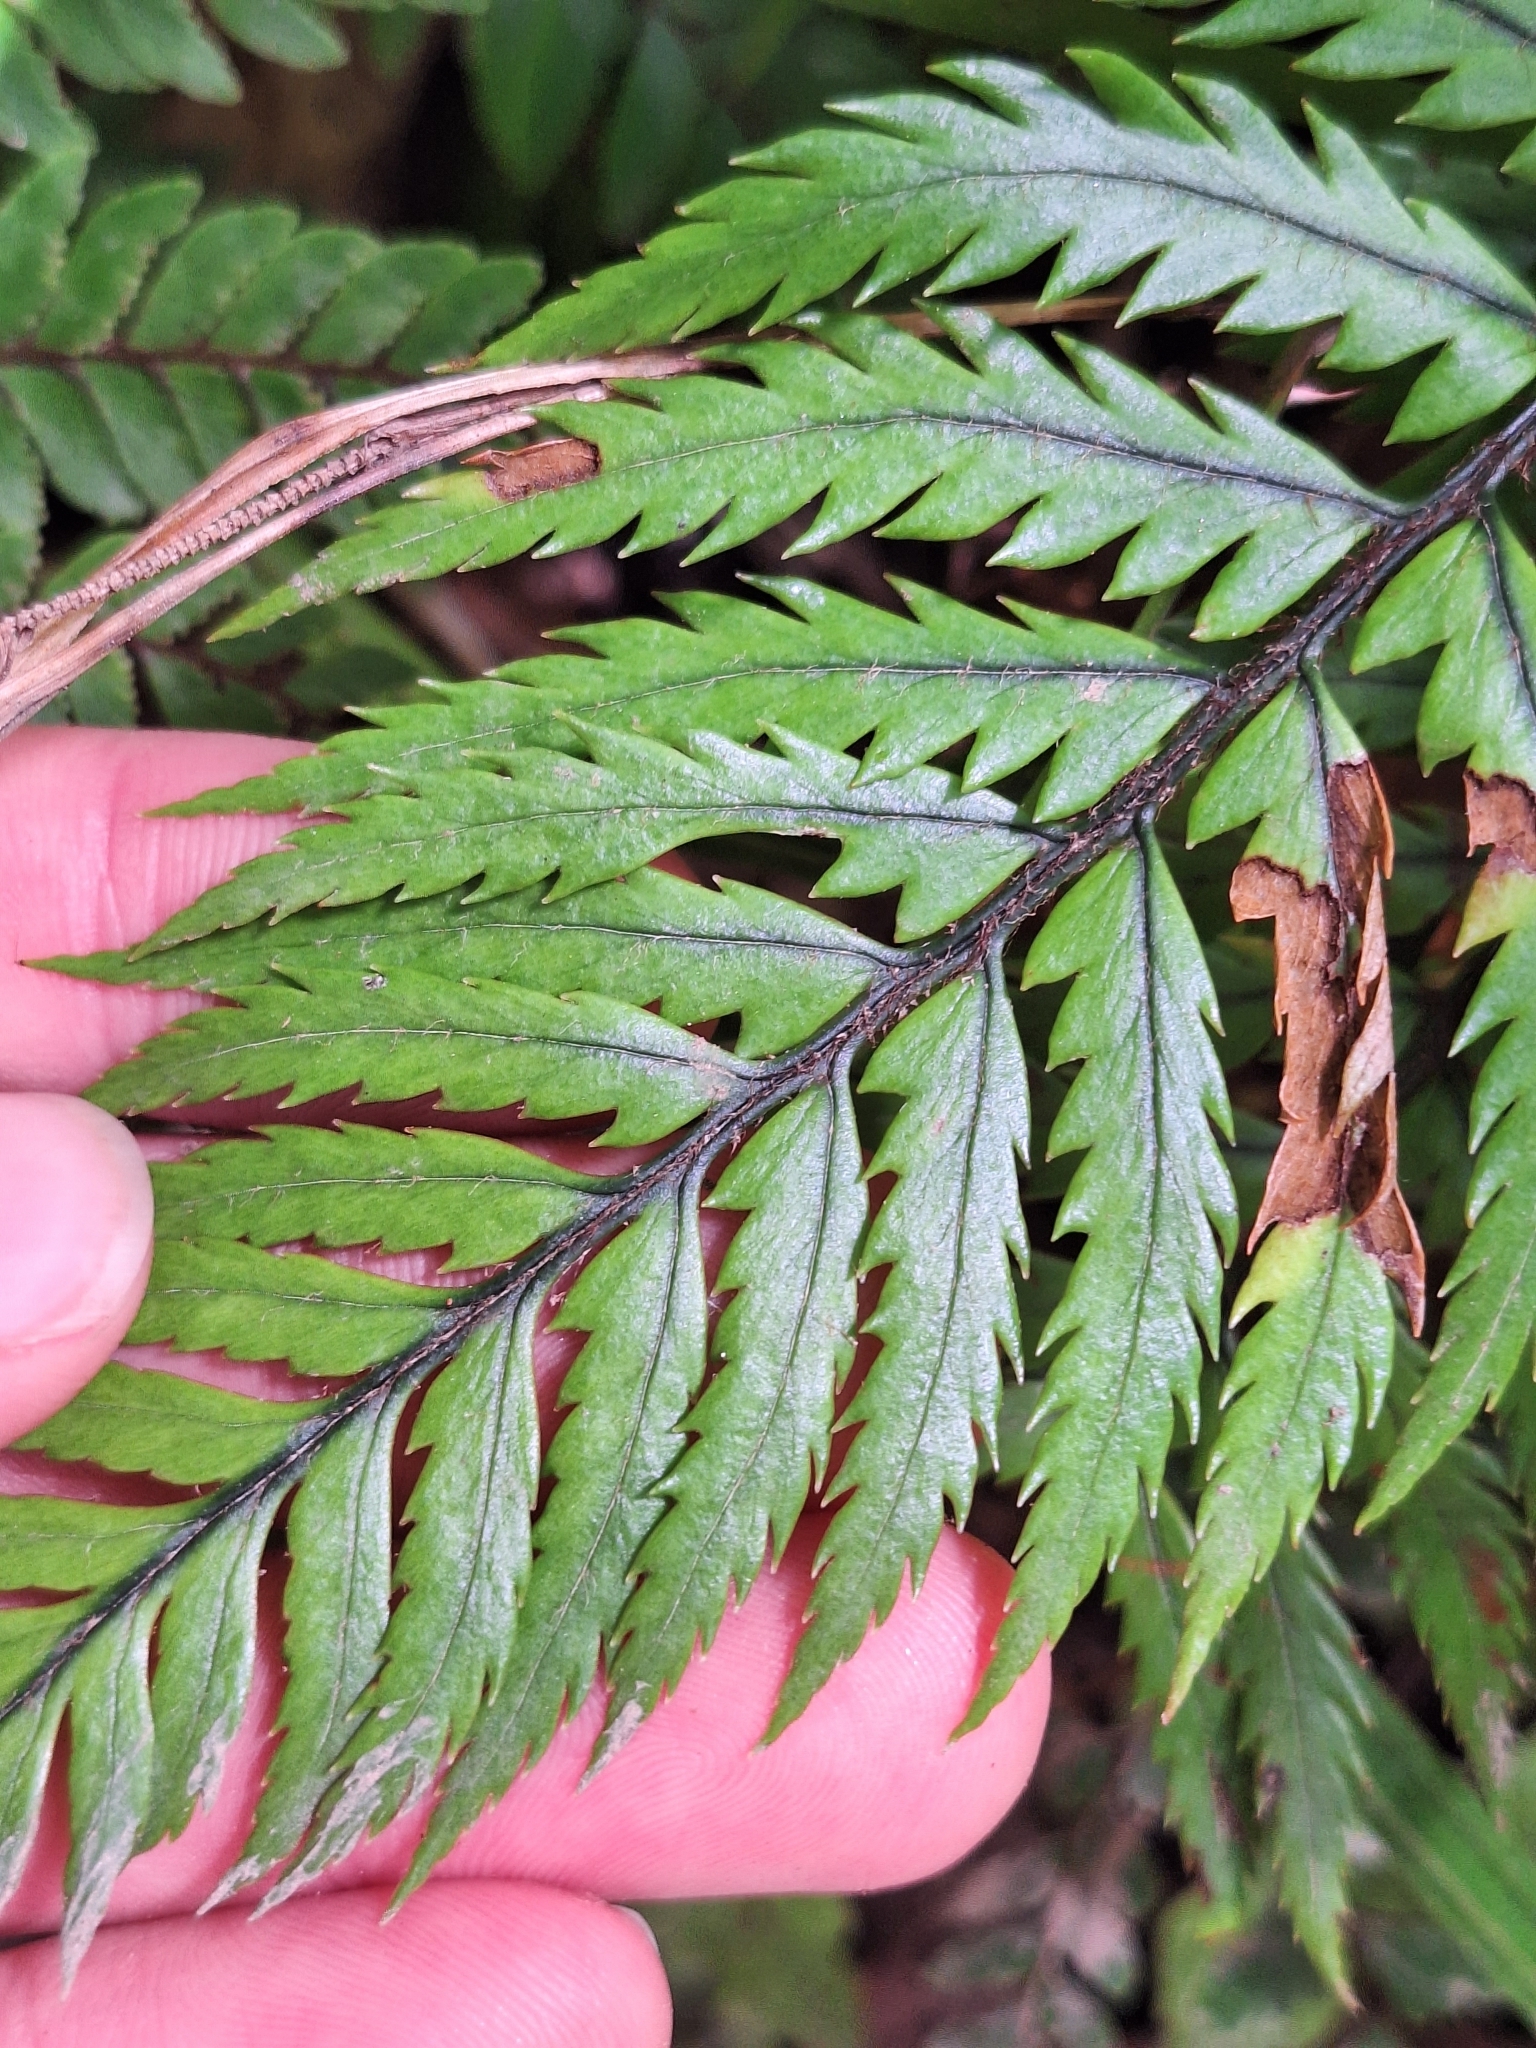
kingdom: Plantae
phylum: Tracheophyta
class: Polypodiopsida
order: Polypodiales
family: Dryopteridaceae
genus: Polystichum
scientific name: Polystichum wawranum
